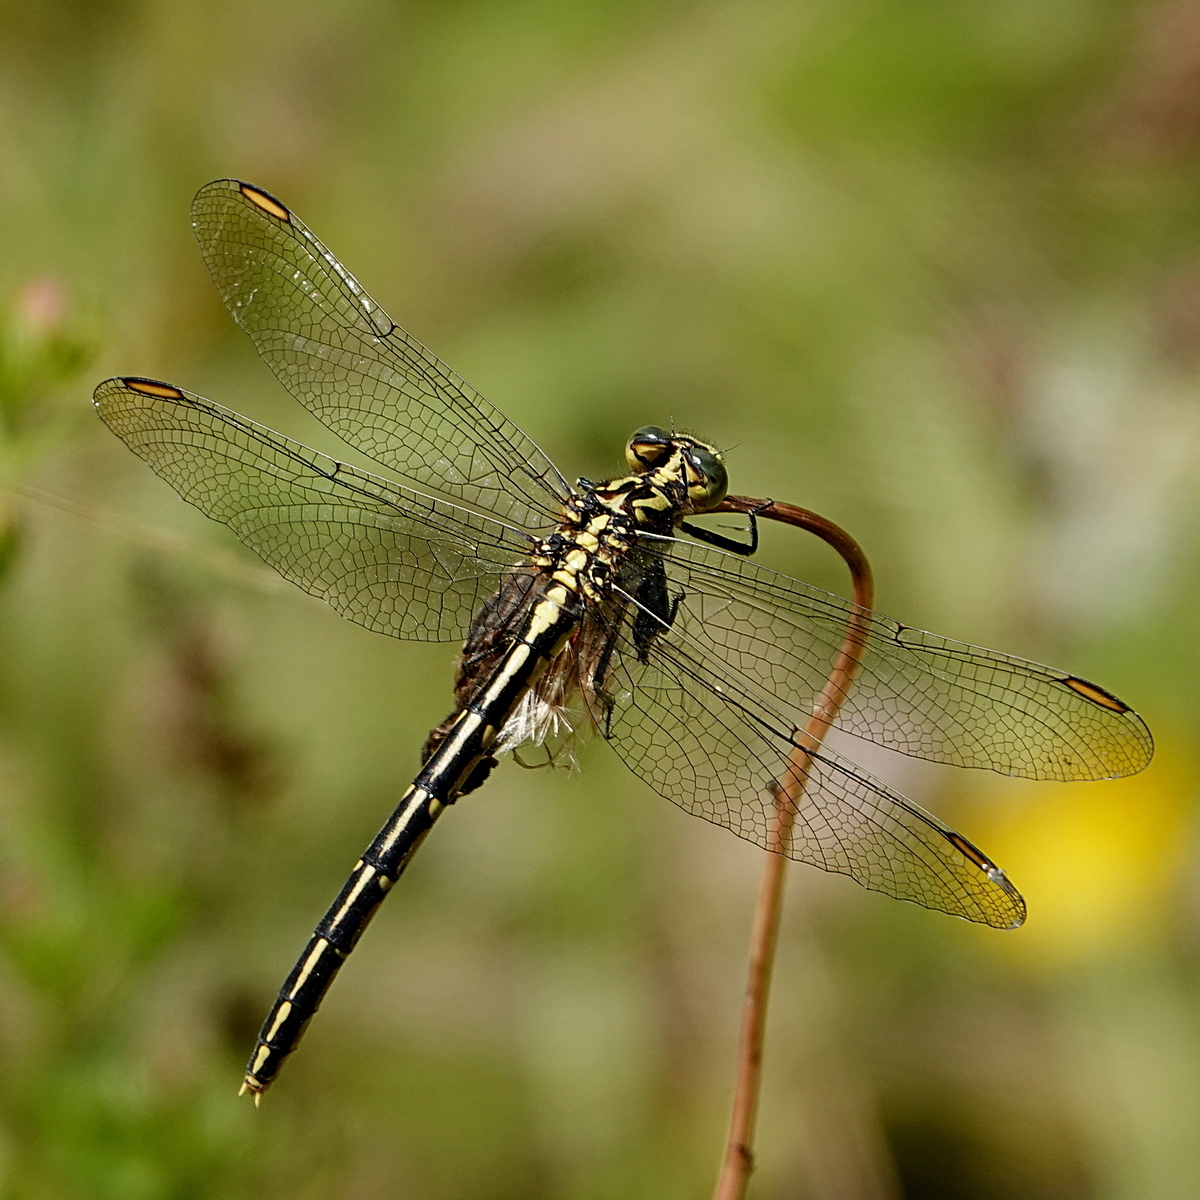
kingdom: Animalia
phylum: Arthropoda
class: Insecta
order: Odonata
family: Gomphidae
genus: Austrogomphus
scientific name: Austrogomphus guerini
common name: Yellow-striped hunter
